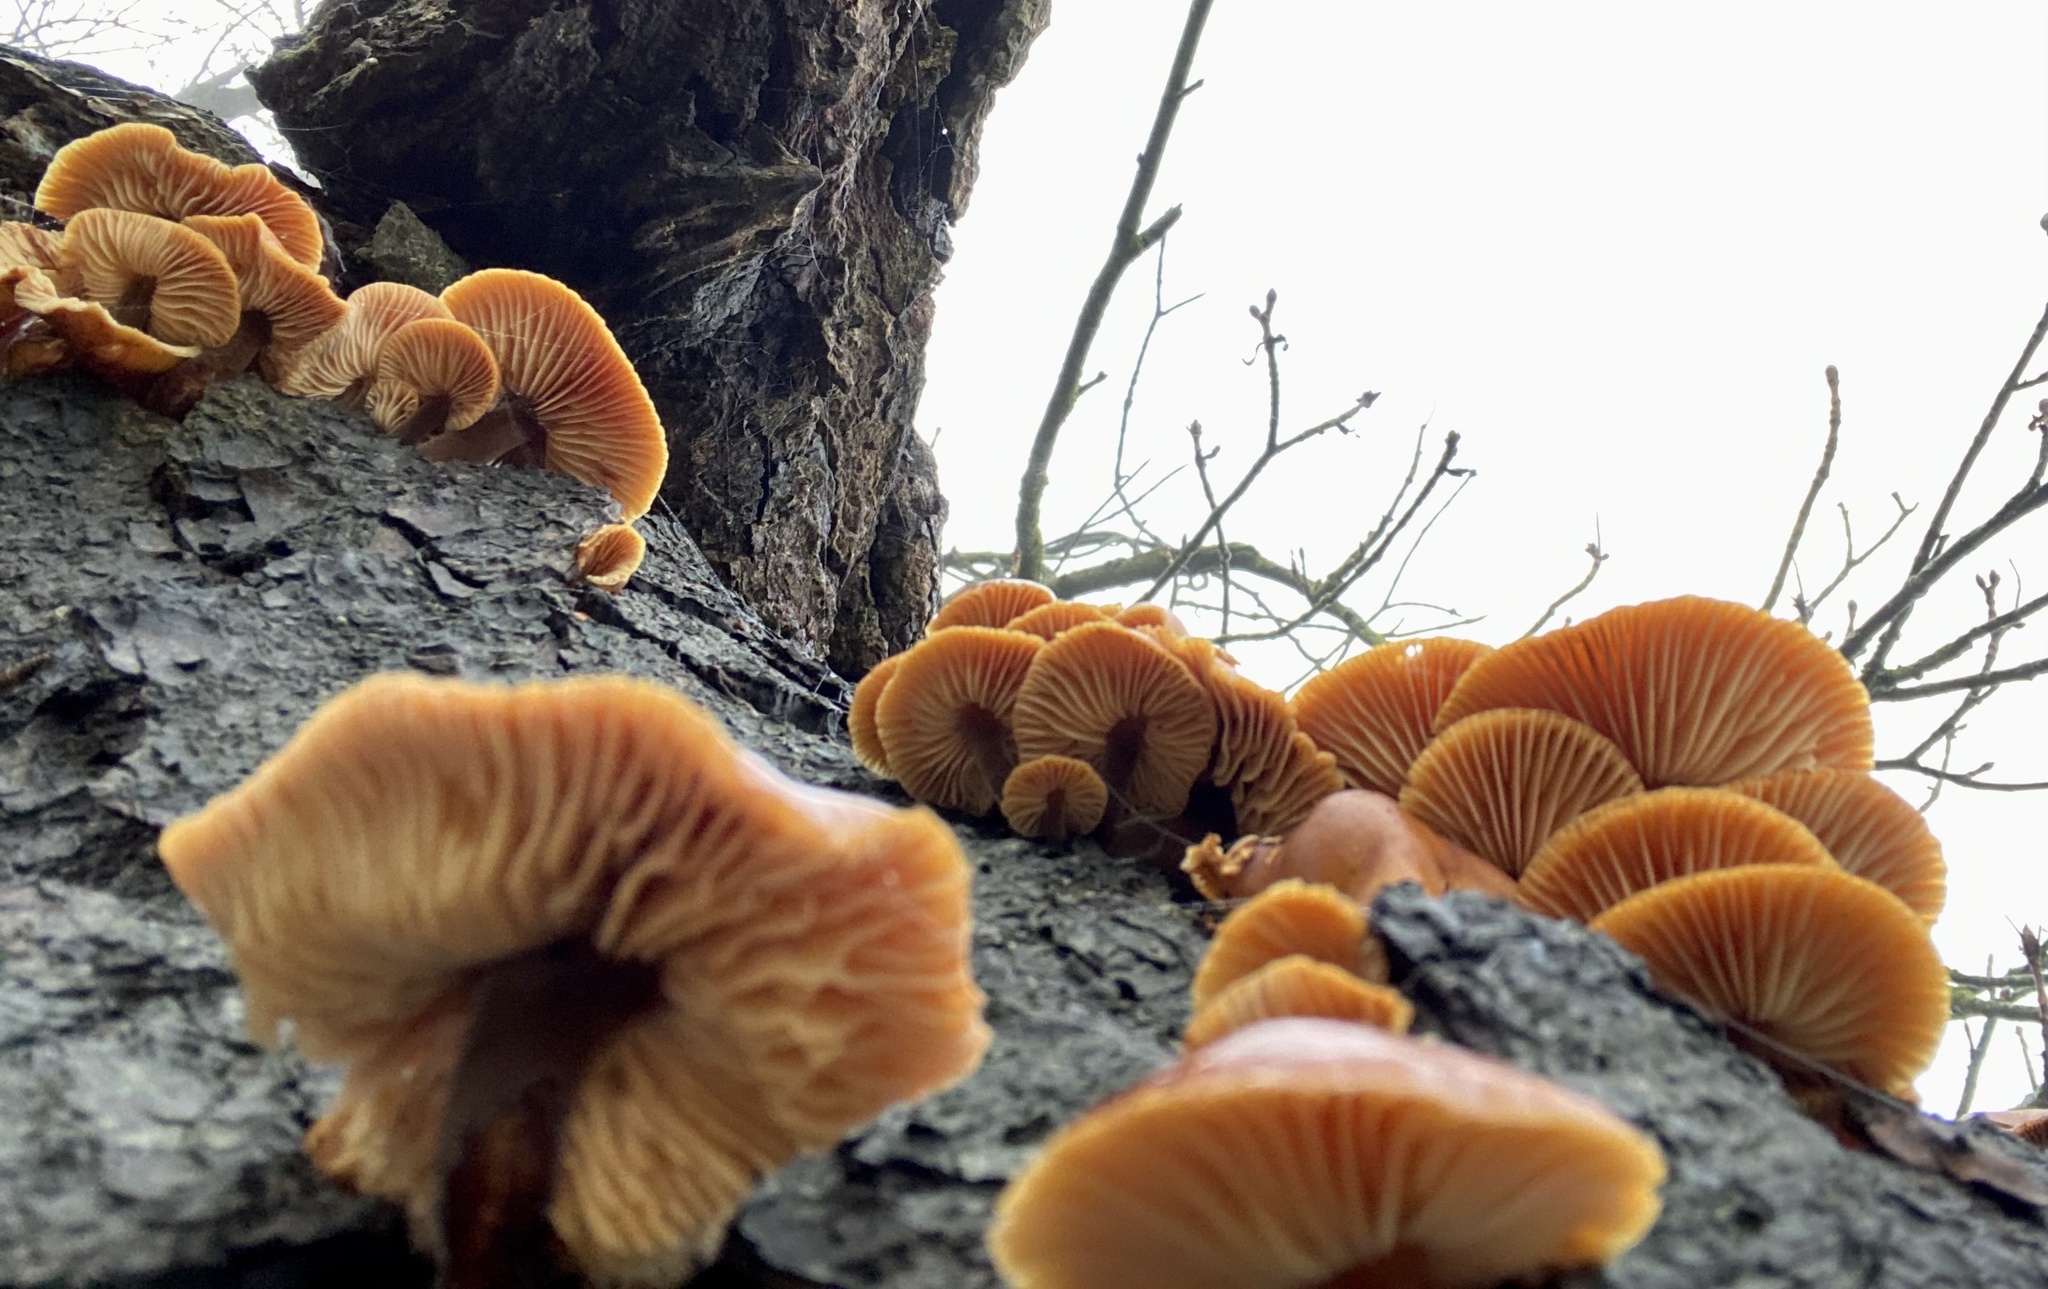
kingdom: Fungi
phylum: Basidiomycota
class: Agaricomycetes
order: Agaricales
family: Physalacriaceae
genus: Flammulina
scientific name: Flammulina
